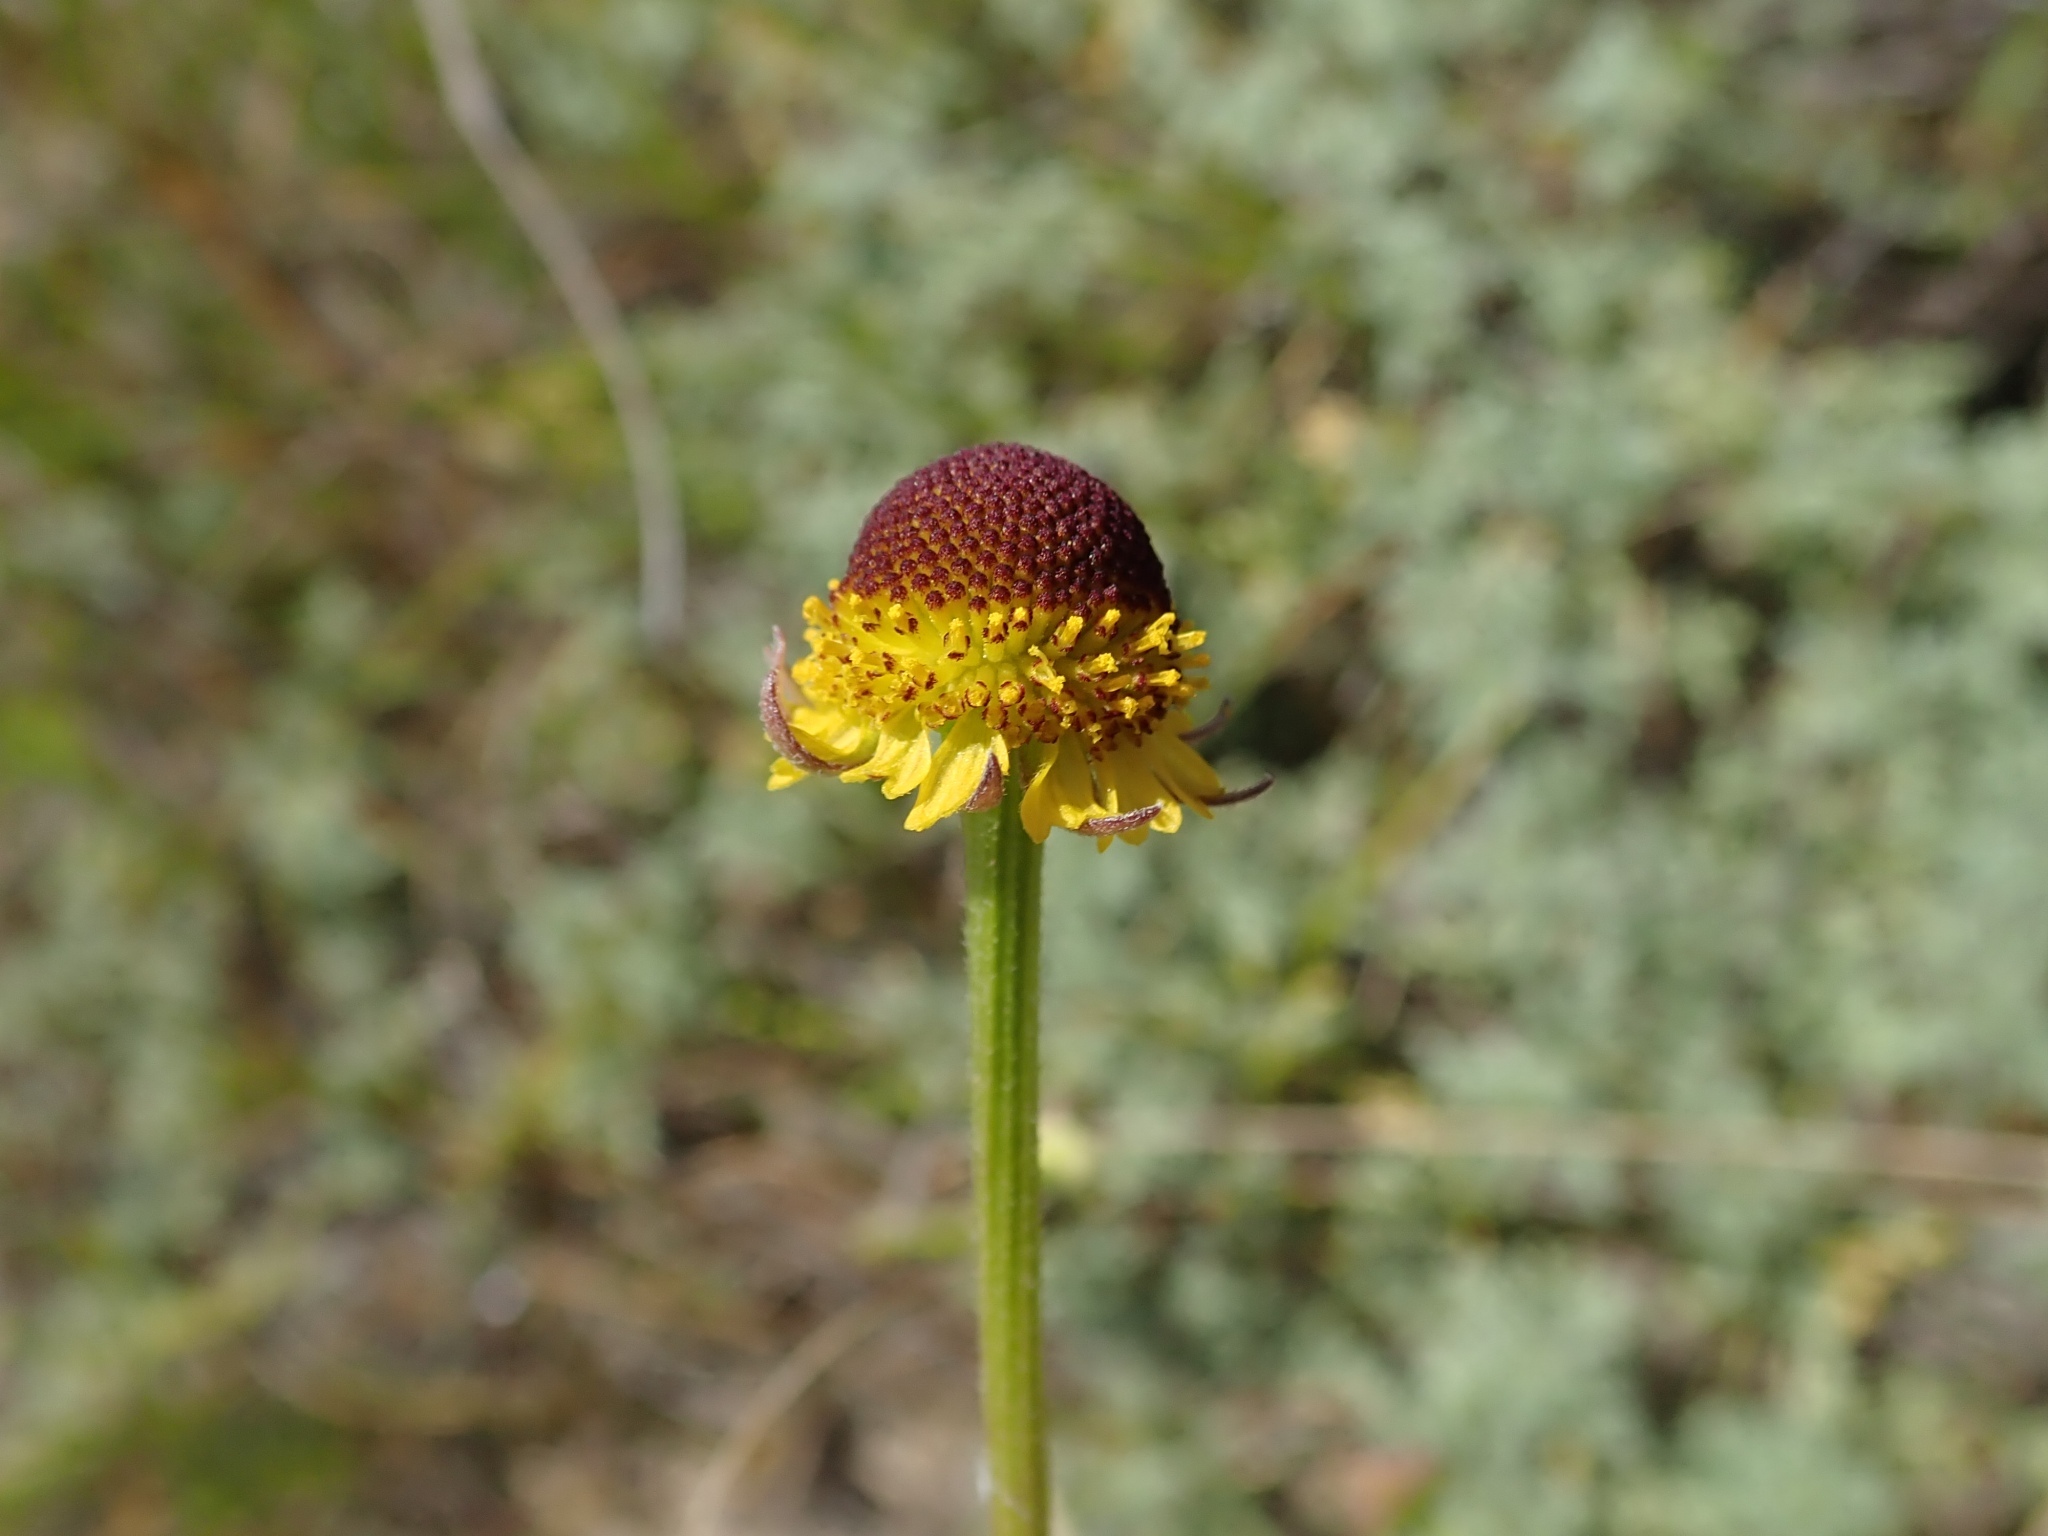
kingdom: Plantae
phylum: Tracheophyta
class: Magnoliopsida
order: Asterales
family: Asteraceae
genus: Helenium
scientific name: Helenium puberulum
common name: Sneezewort
